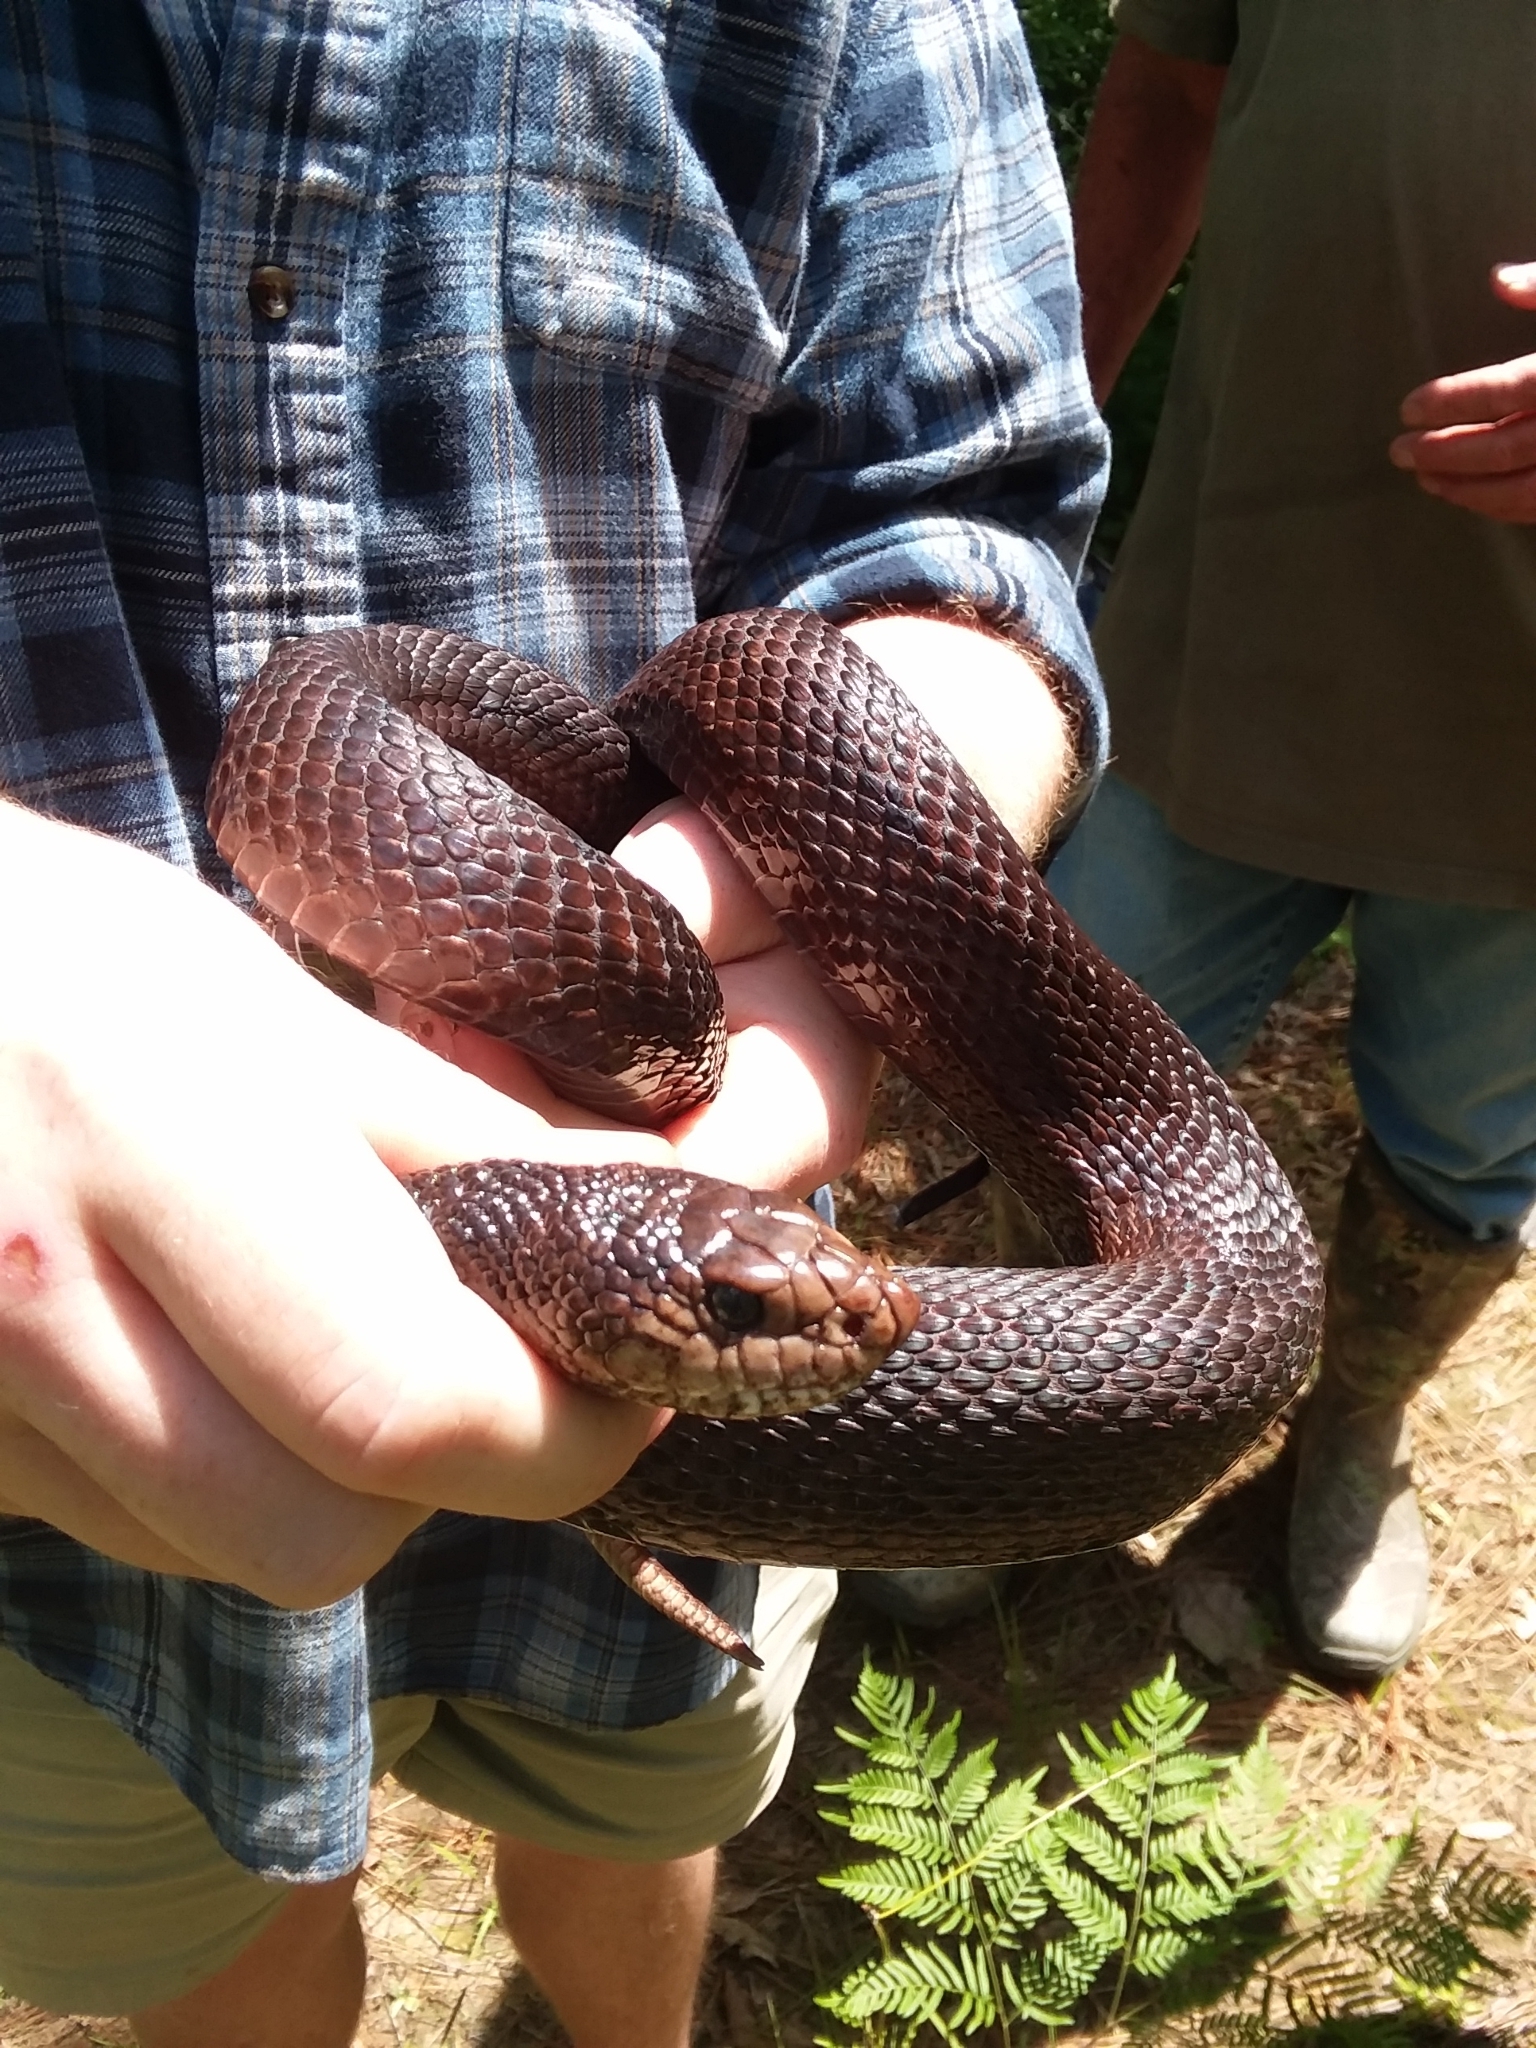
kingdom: Animalia
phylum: Chordata
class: Squamata
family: Colubridae
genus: Pituophis
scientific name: Pituophis melanoleucus
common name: Pine snake
